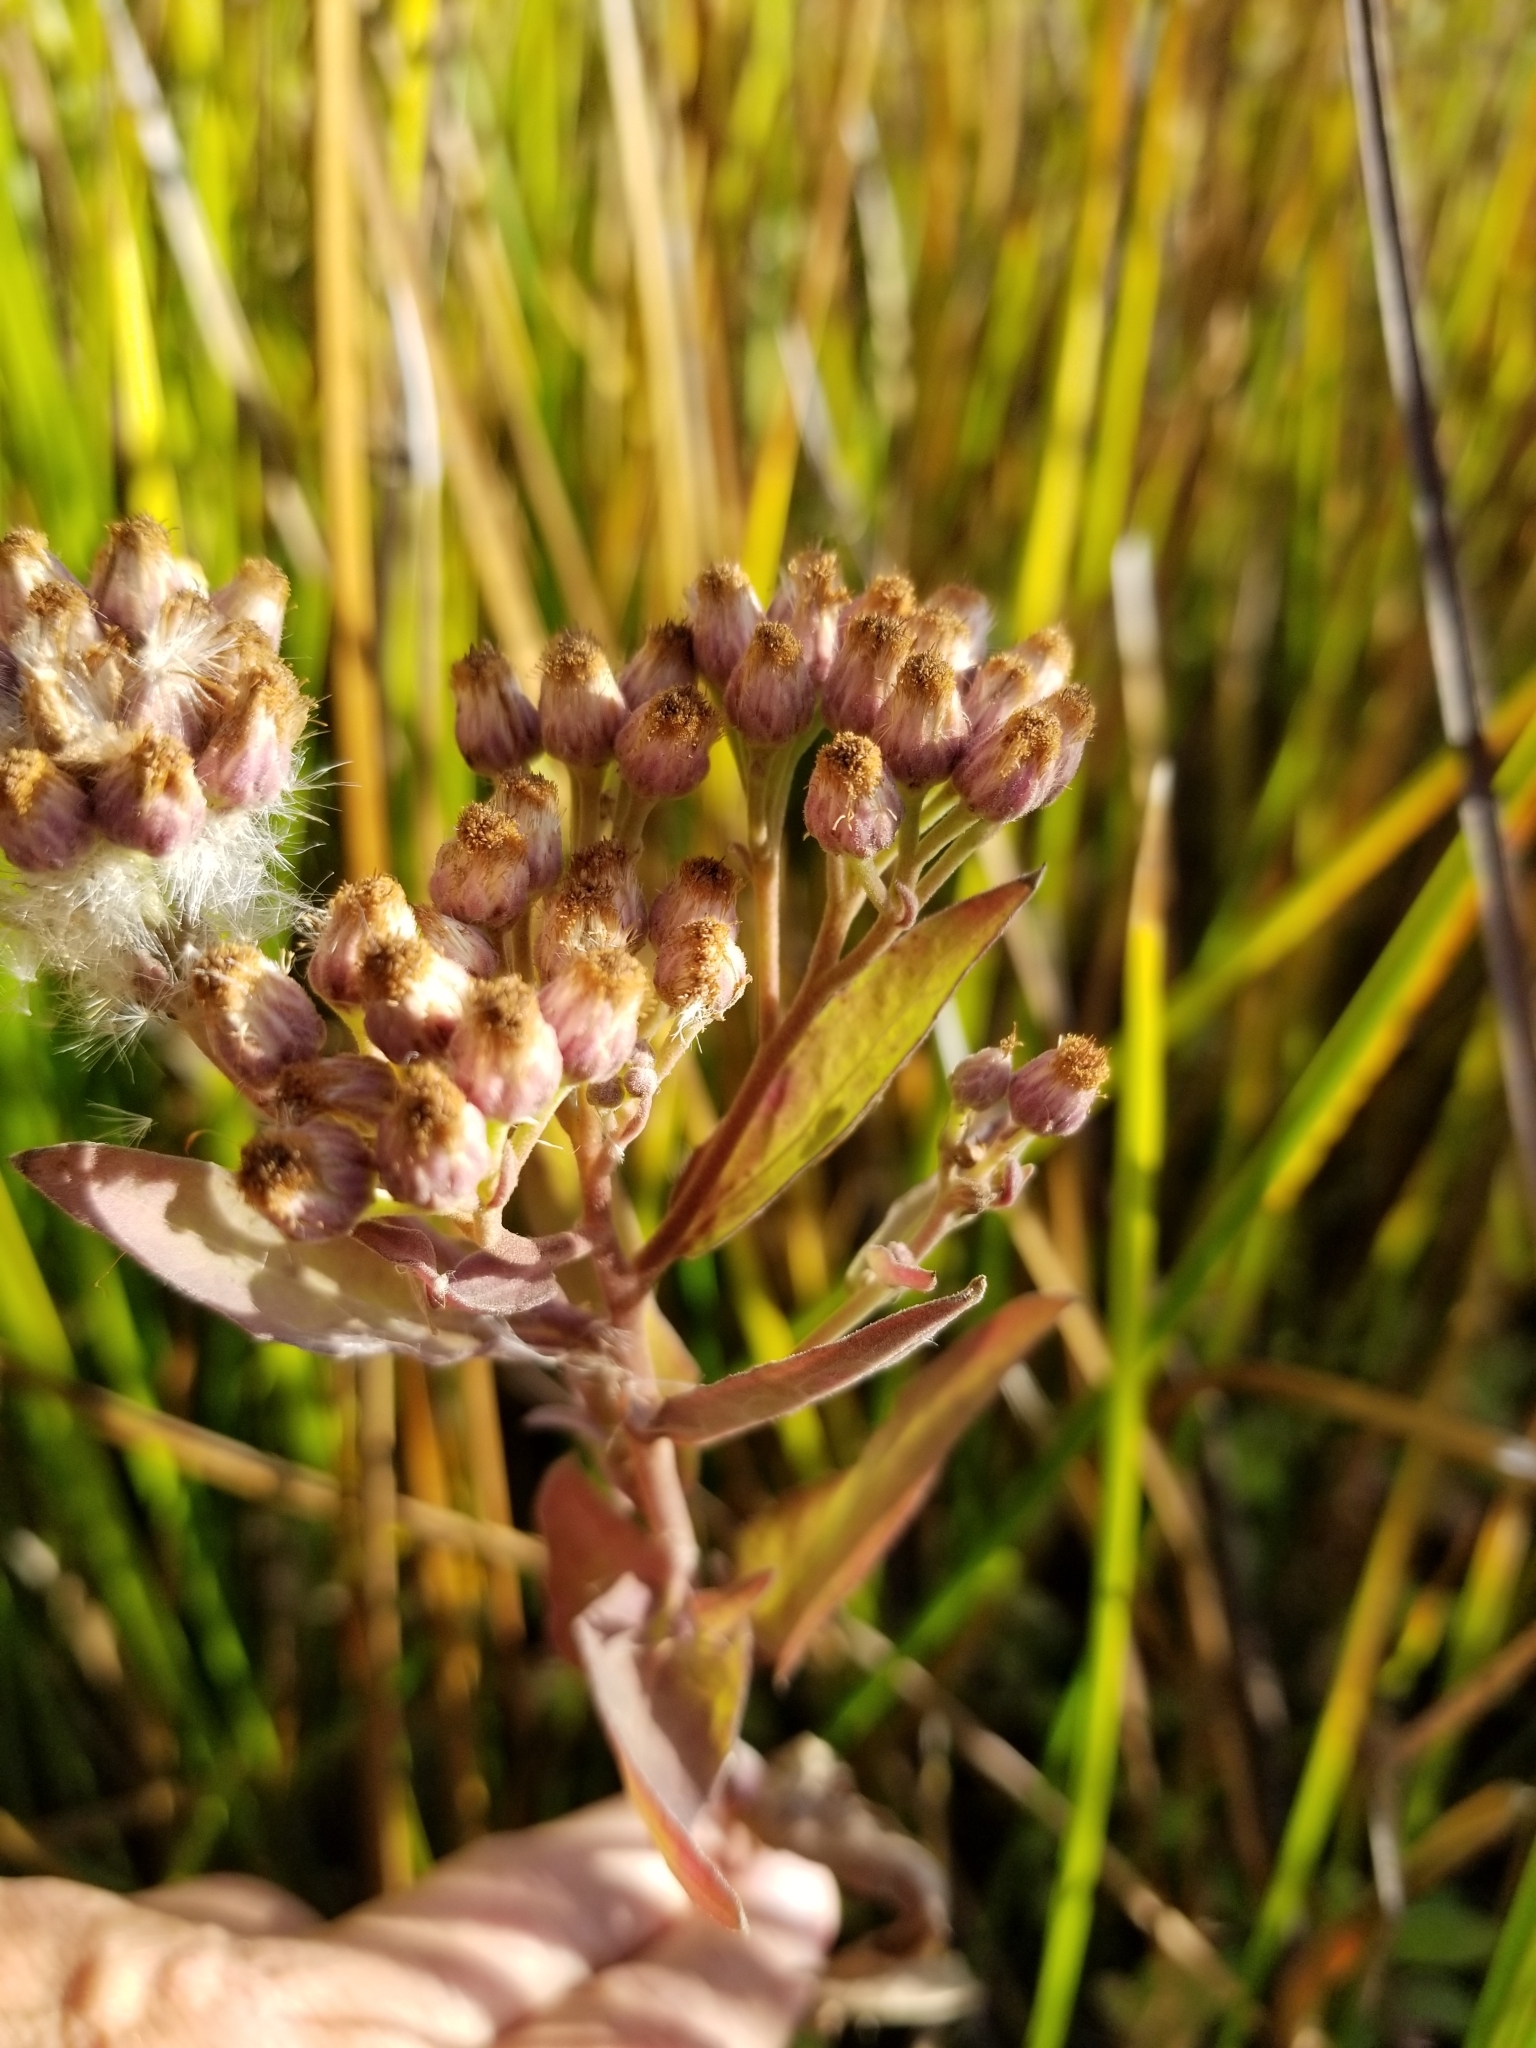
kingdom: Plantae
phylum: Tracheophyta
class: Magnoliopsida
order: Asterales
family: Asteraceae
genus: Pluchea
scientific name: Pluchea odorata
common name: Saltmarsh fleabane
